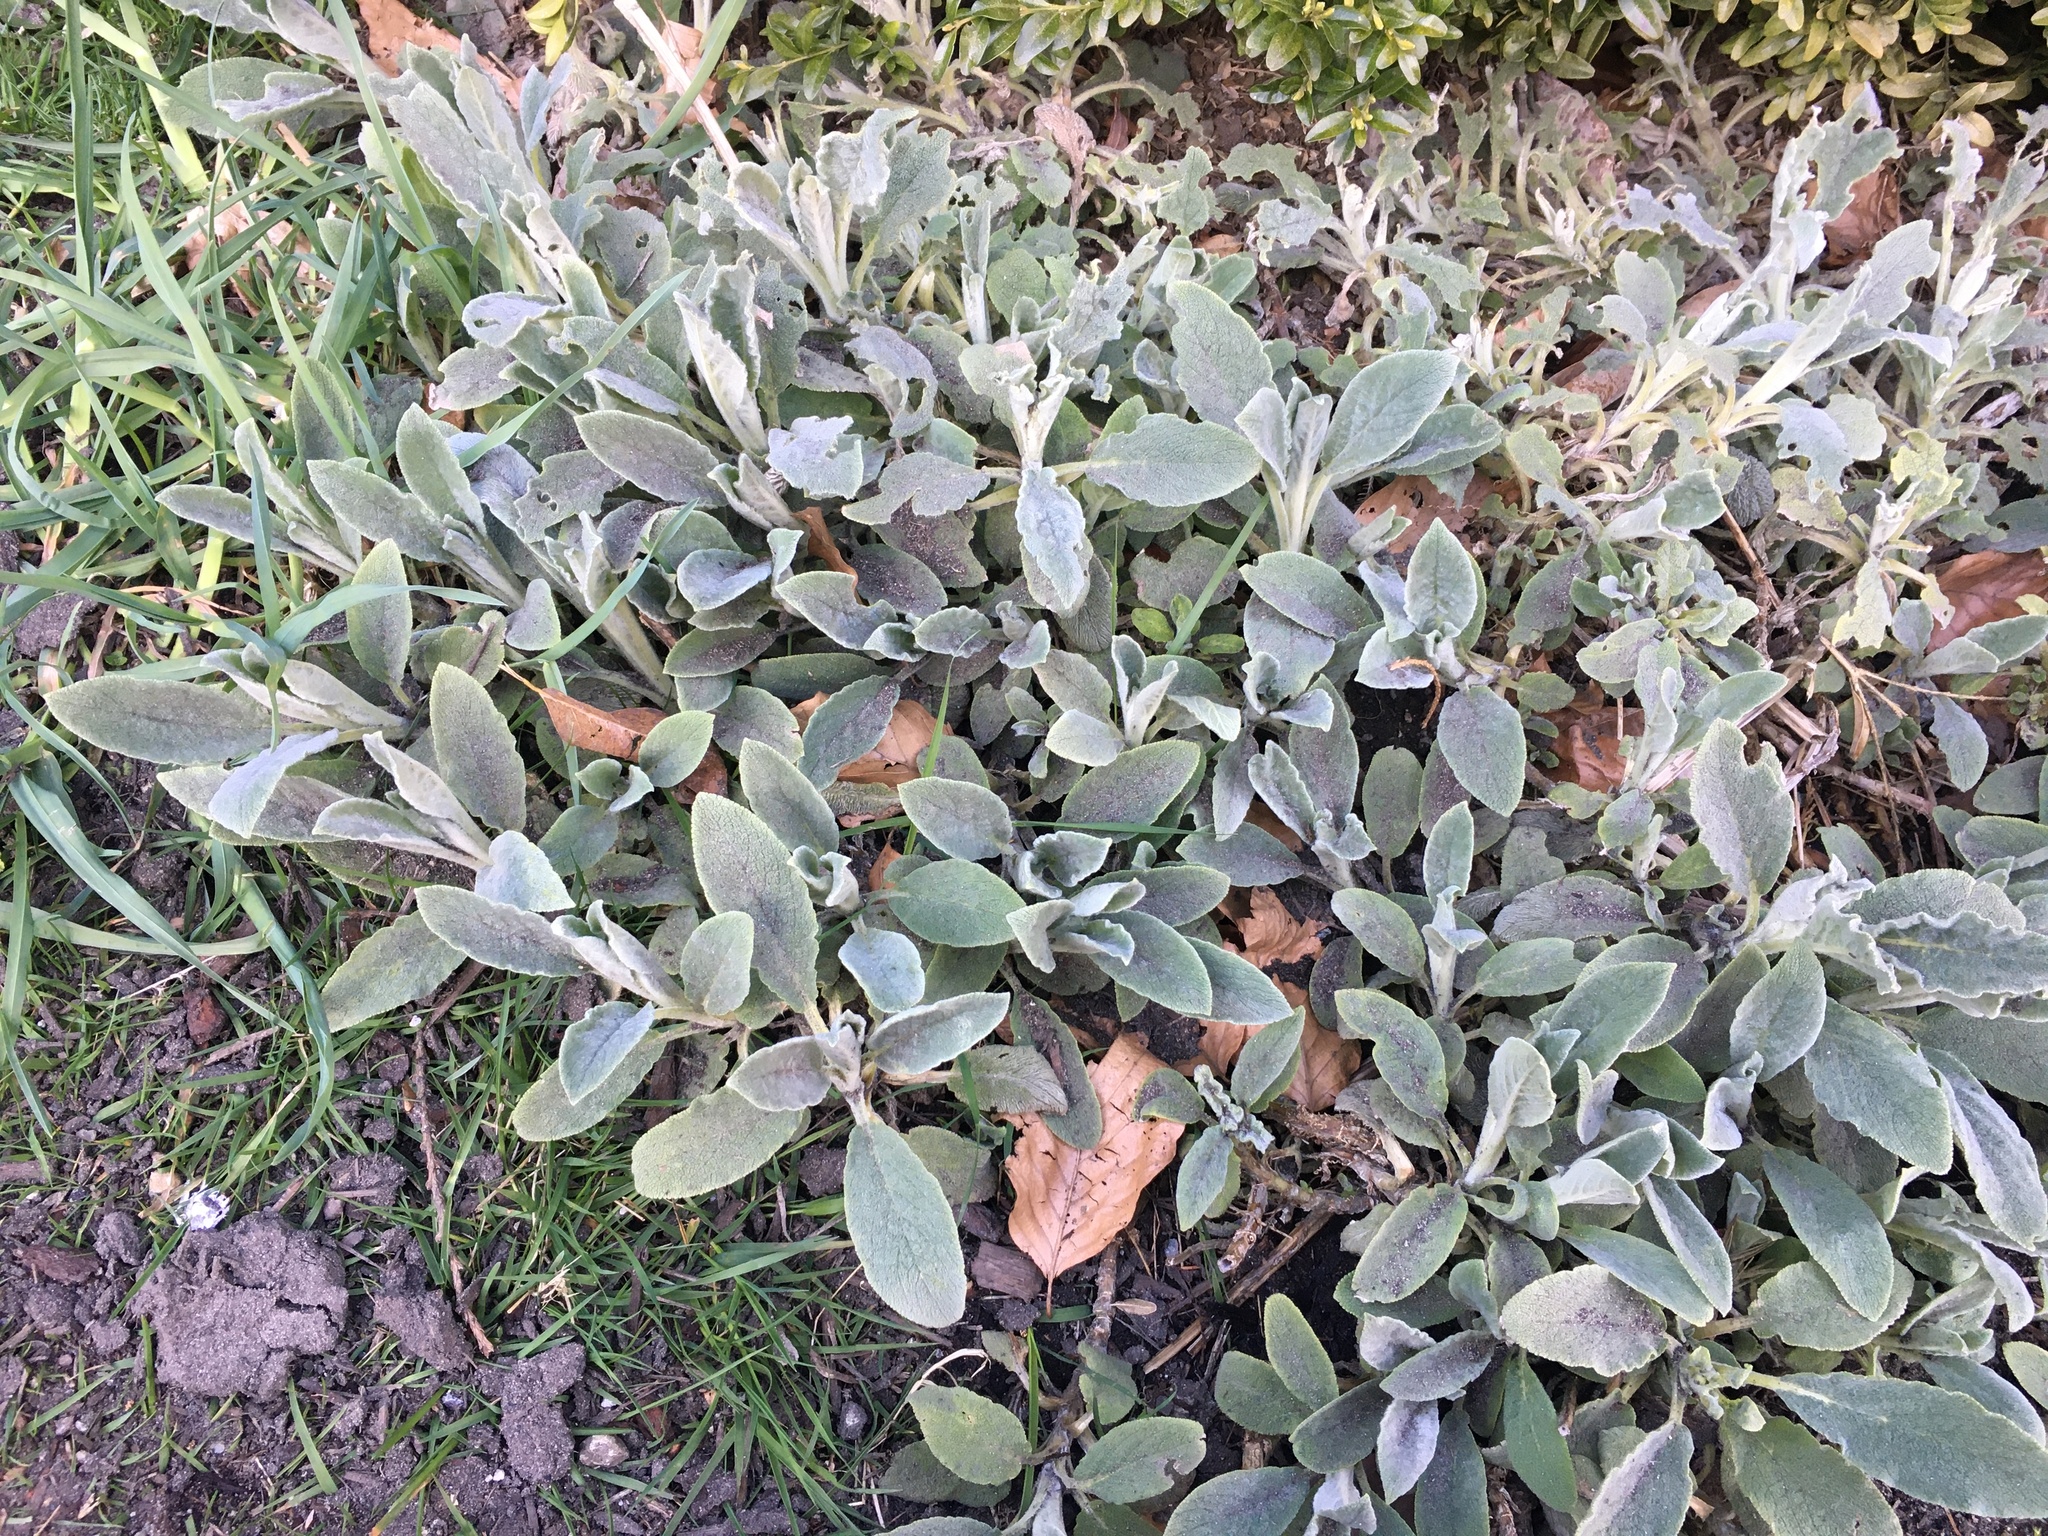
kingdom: Plantae
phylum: Tracheophyta
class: Magnoliopsida
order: Lamiales
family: Lamiaceae
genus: Stachys
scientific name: Stachys byzantina
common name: Lamb's-ear
